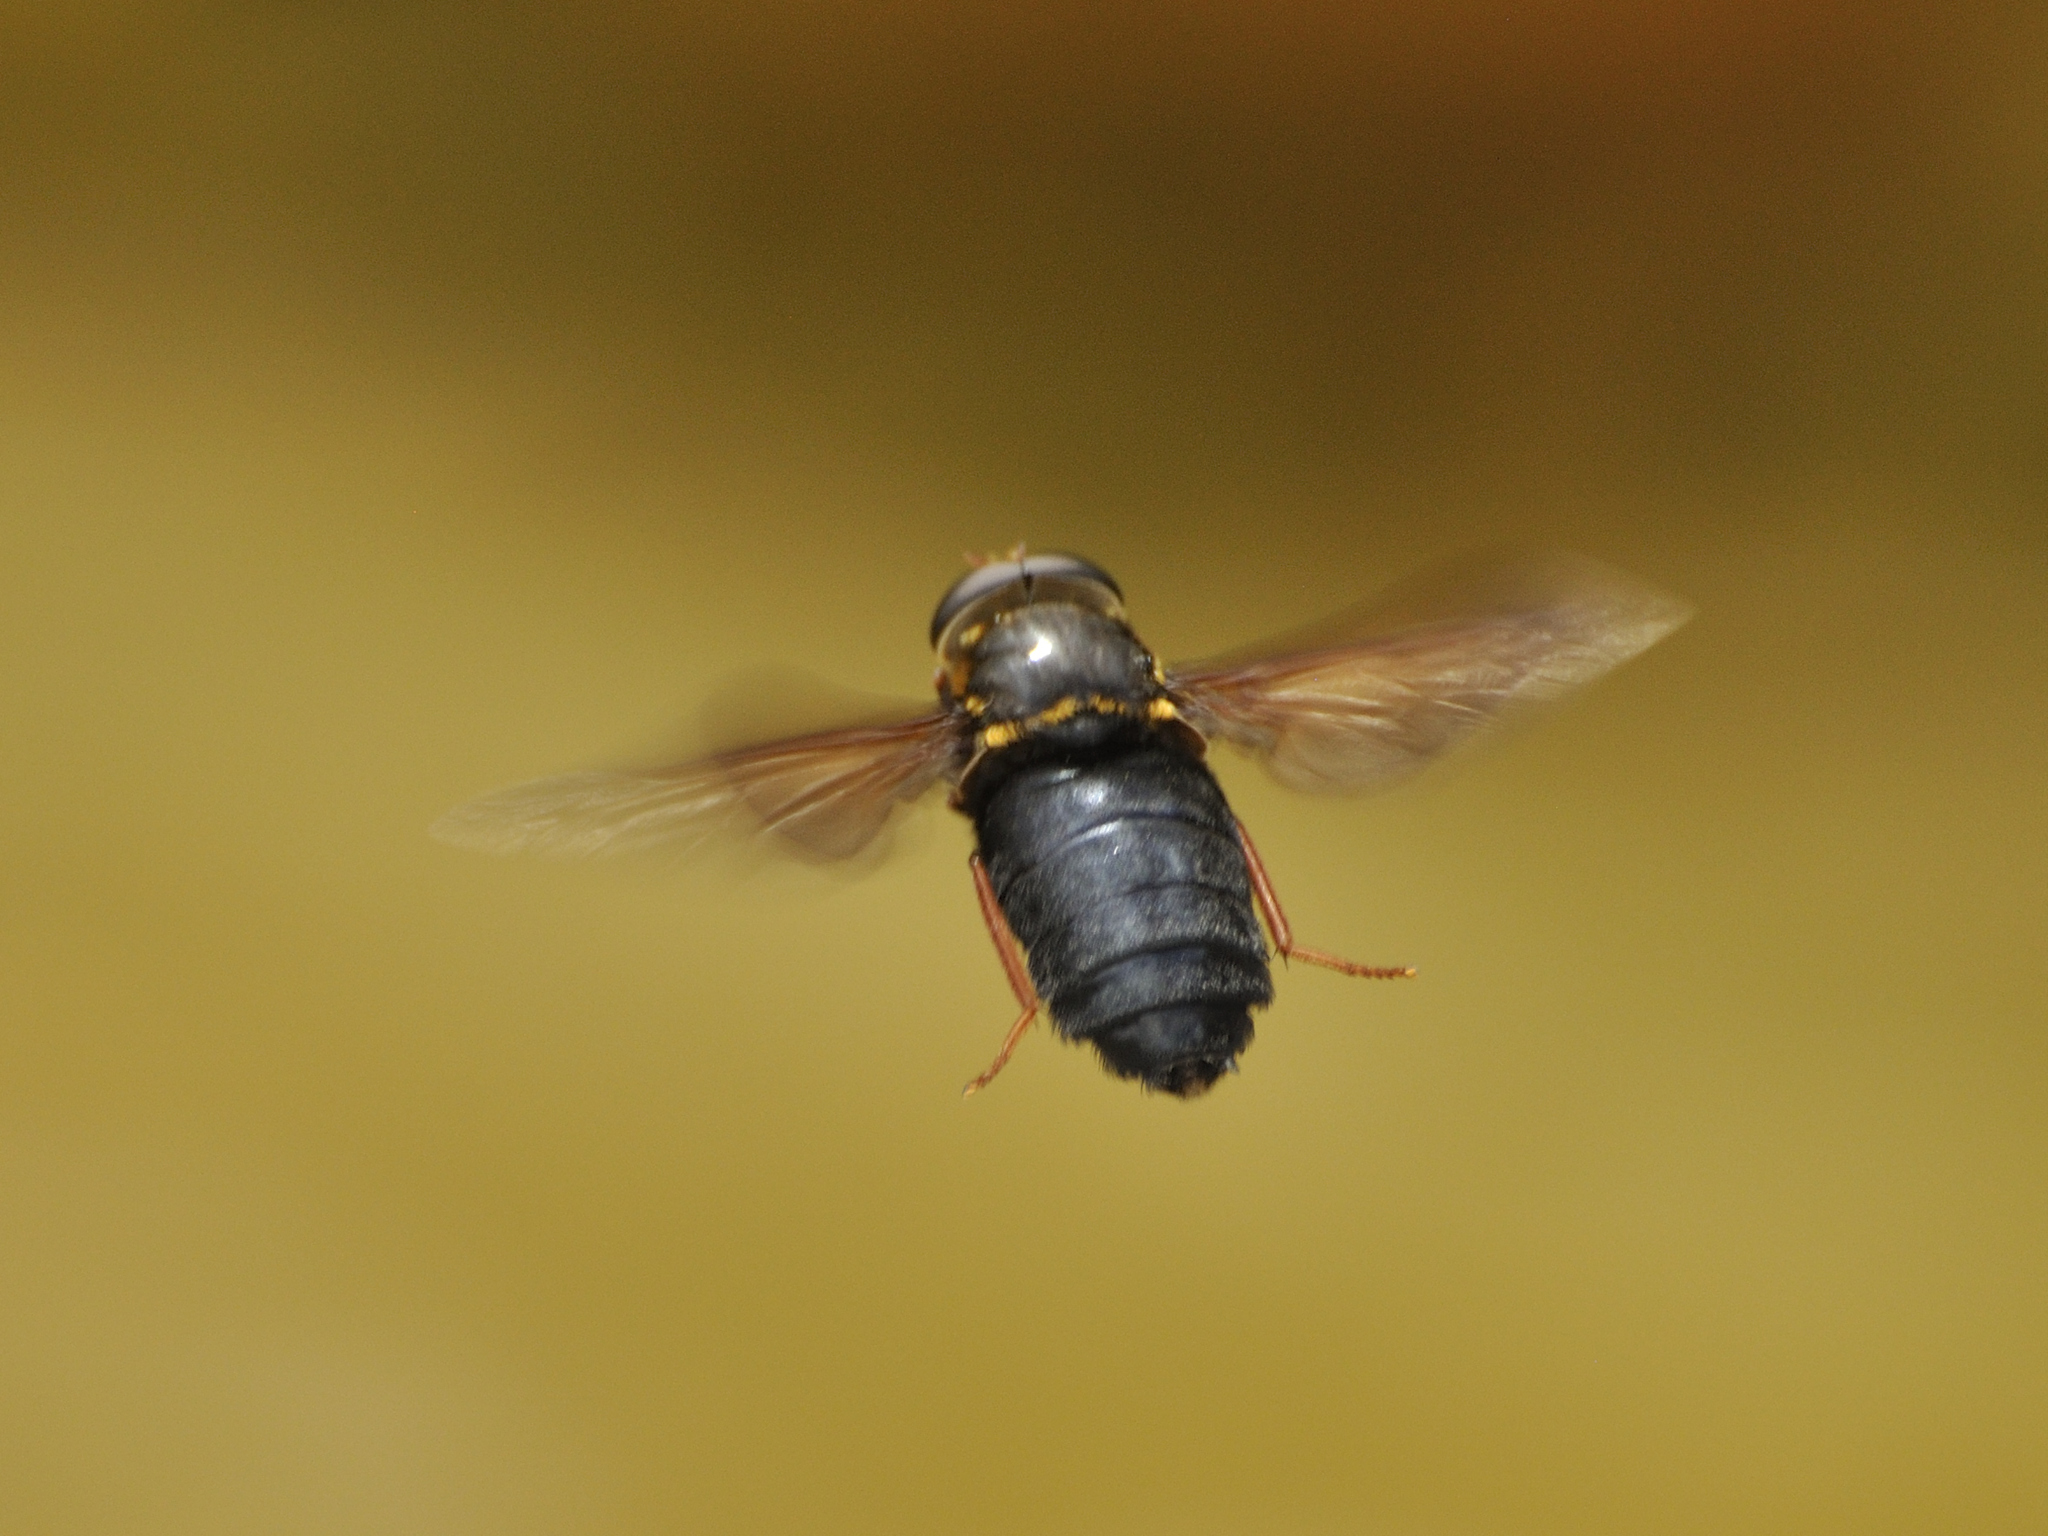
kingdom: Animalia
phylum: Arthropoda
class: Insecta
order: Diptera
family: Tabanidae
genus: Philoliche
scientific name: Philoliche fuscanipennis
